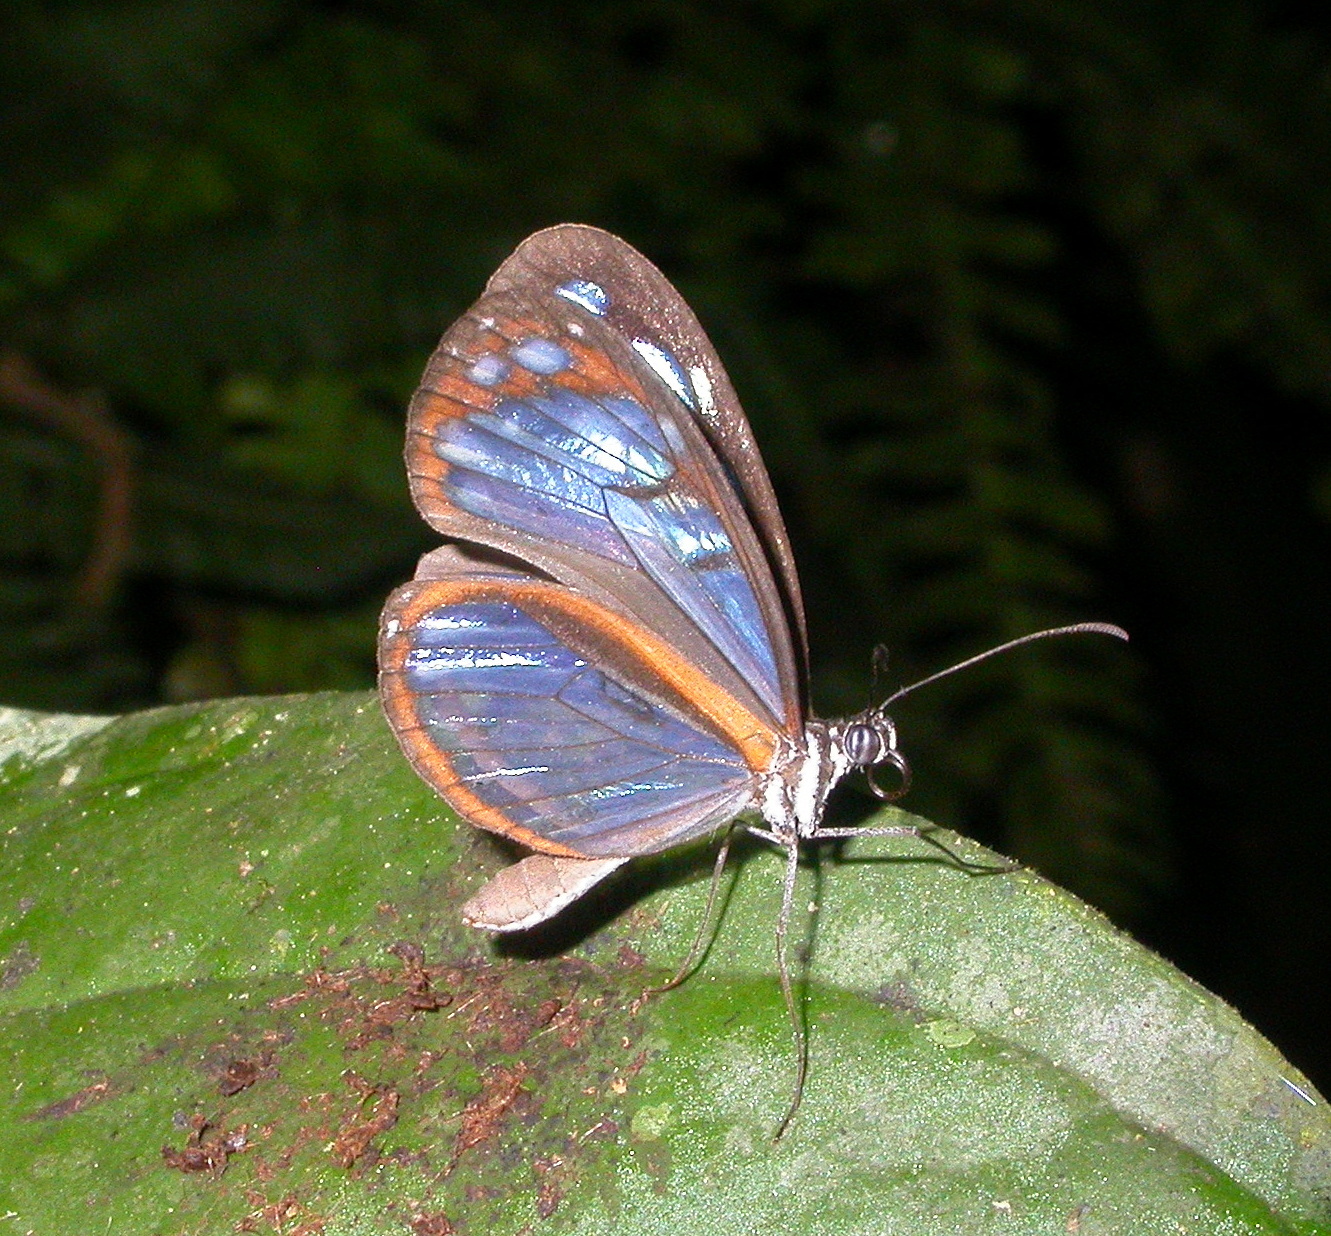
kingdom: Animalia
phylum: Arthropoda
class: Insecta
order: Lepidoptera
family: Nymphalidae
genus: Oleria
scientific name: Oleria amalda
